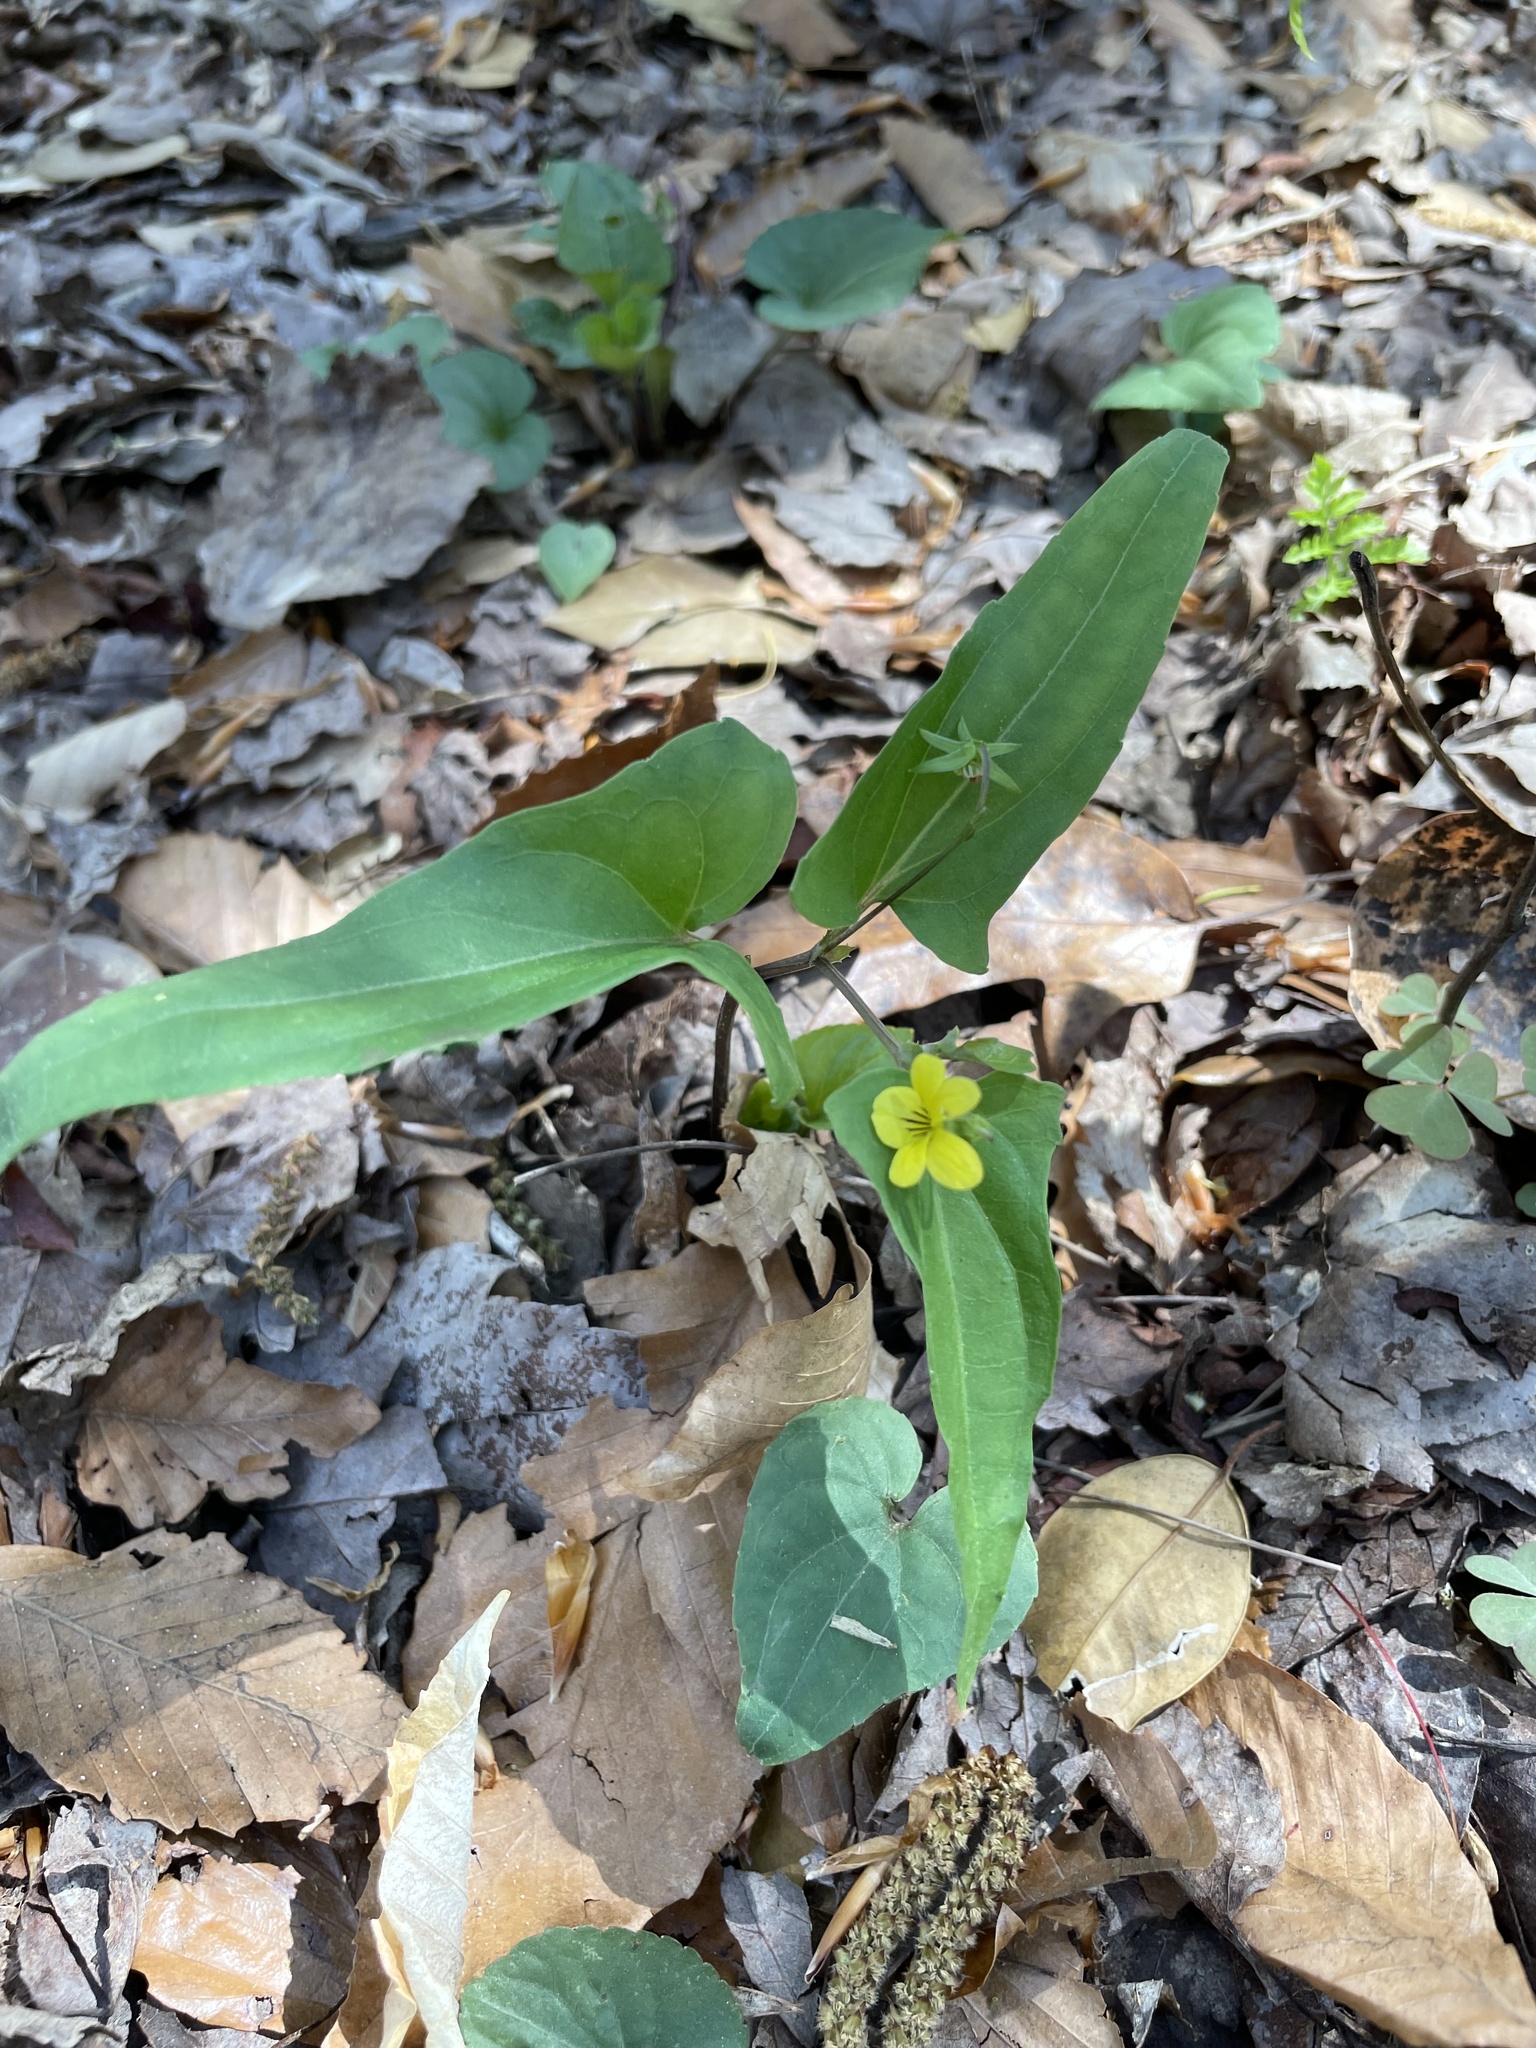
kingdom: Plantae
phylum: Tracheophyta
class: Magnoliopsida
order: Malpighiales
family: Violaceae
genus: Viola
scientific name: Viola hastata
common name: Spear-leaf violet
